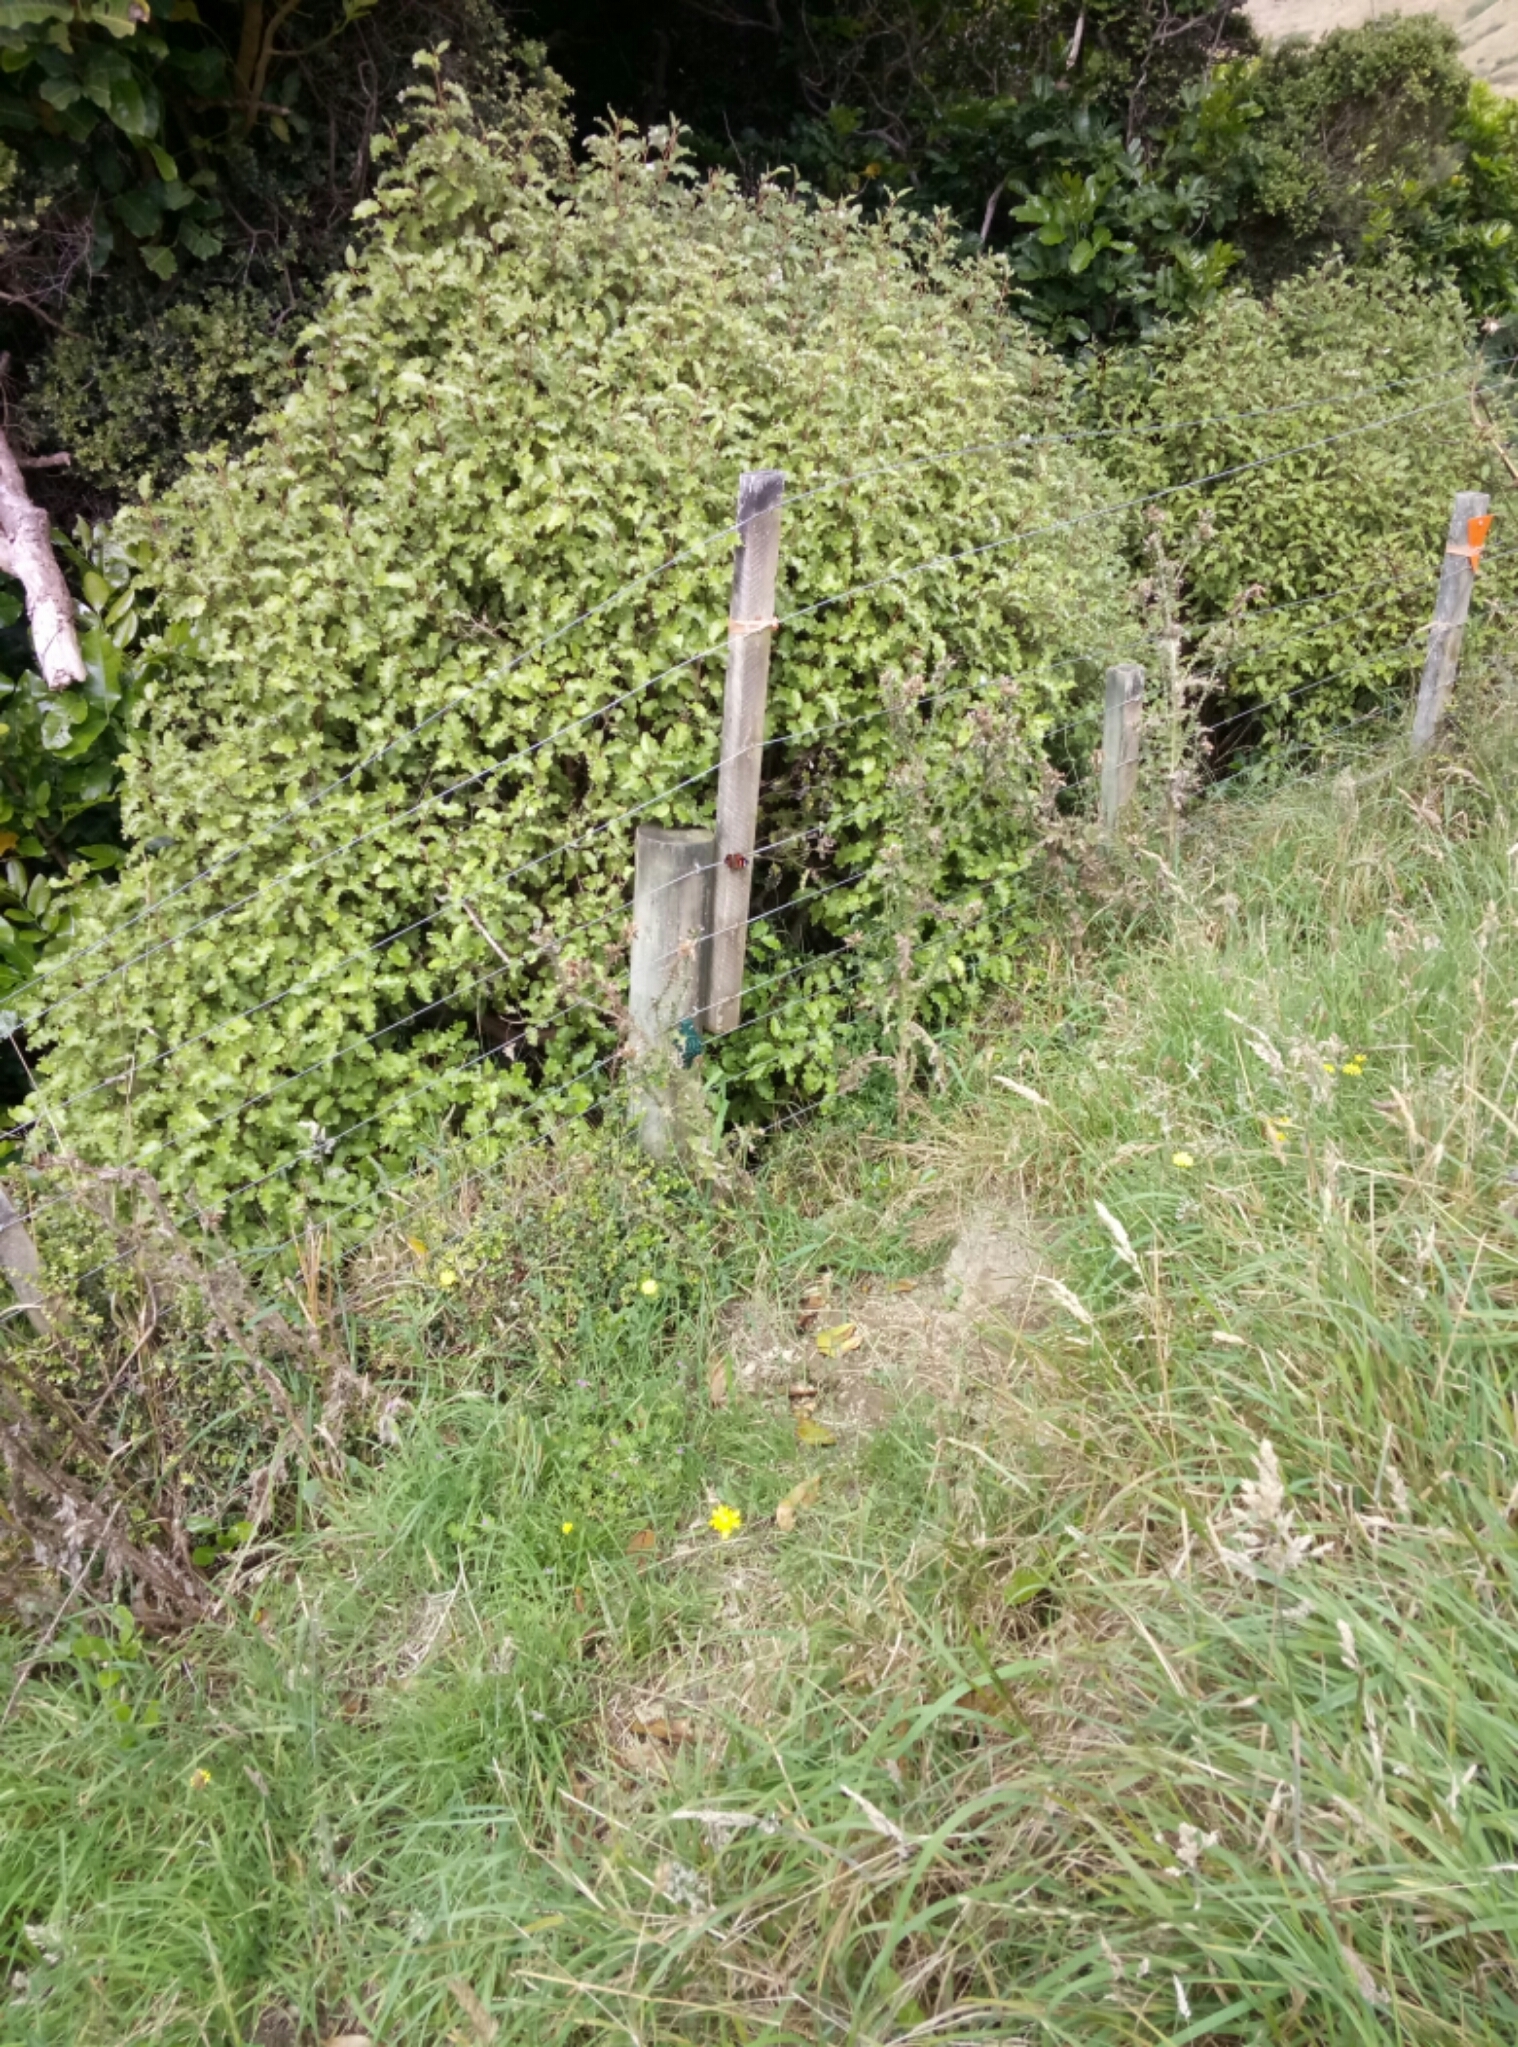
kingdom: Animalia
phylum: Arthropoda
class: Insecta
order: Lepidoptera
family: Nymphalidae
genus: Vanessa
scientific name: Vanessa gonerilla
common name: New zealand red admiral
